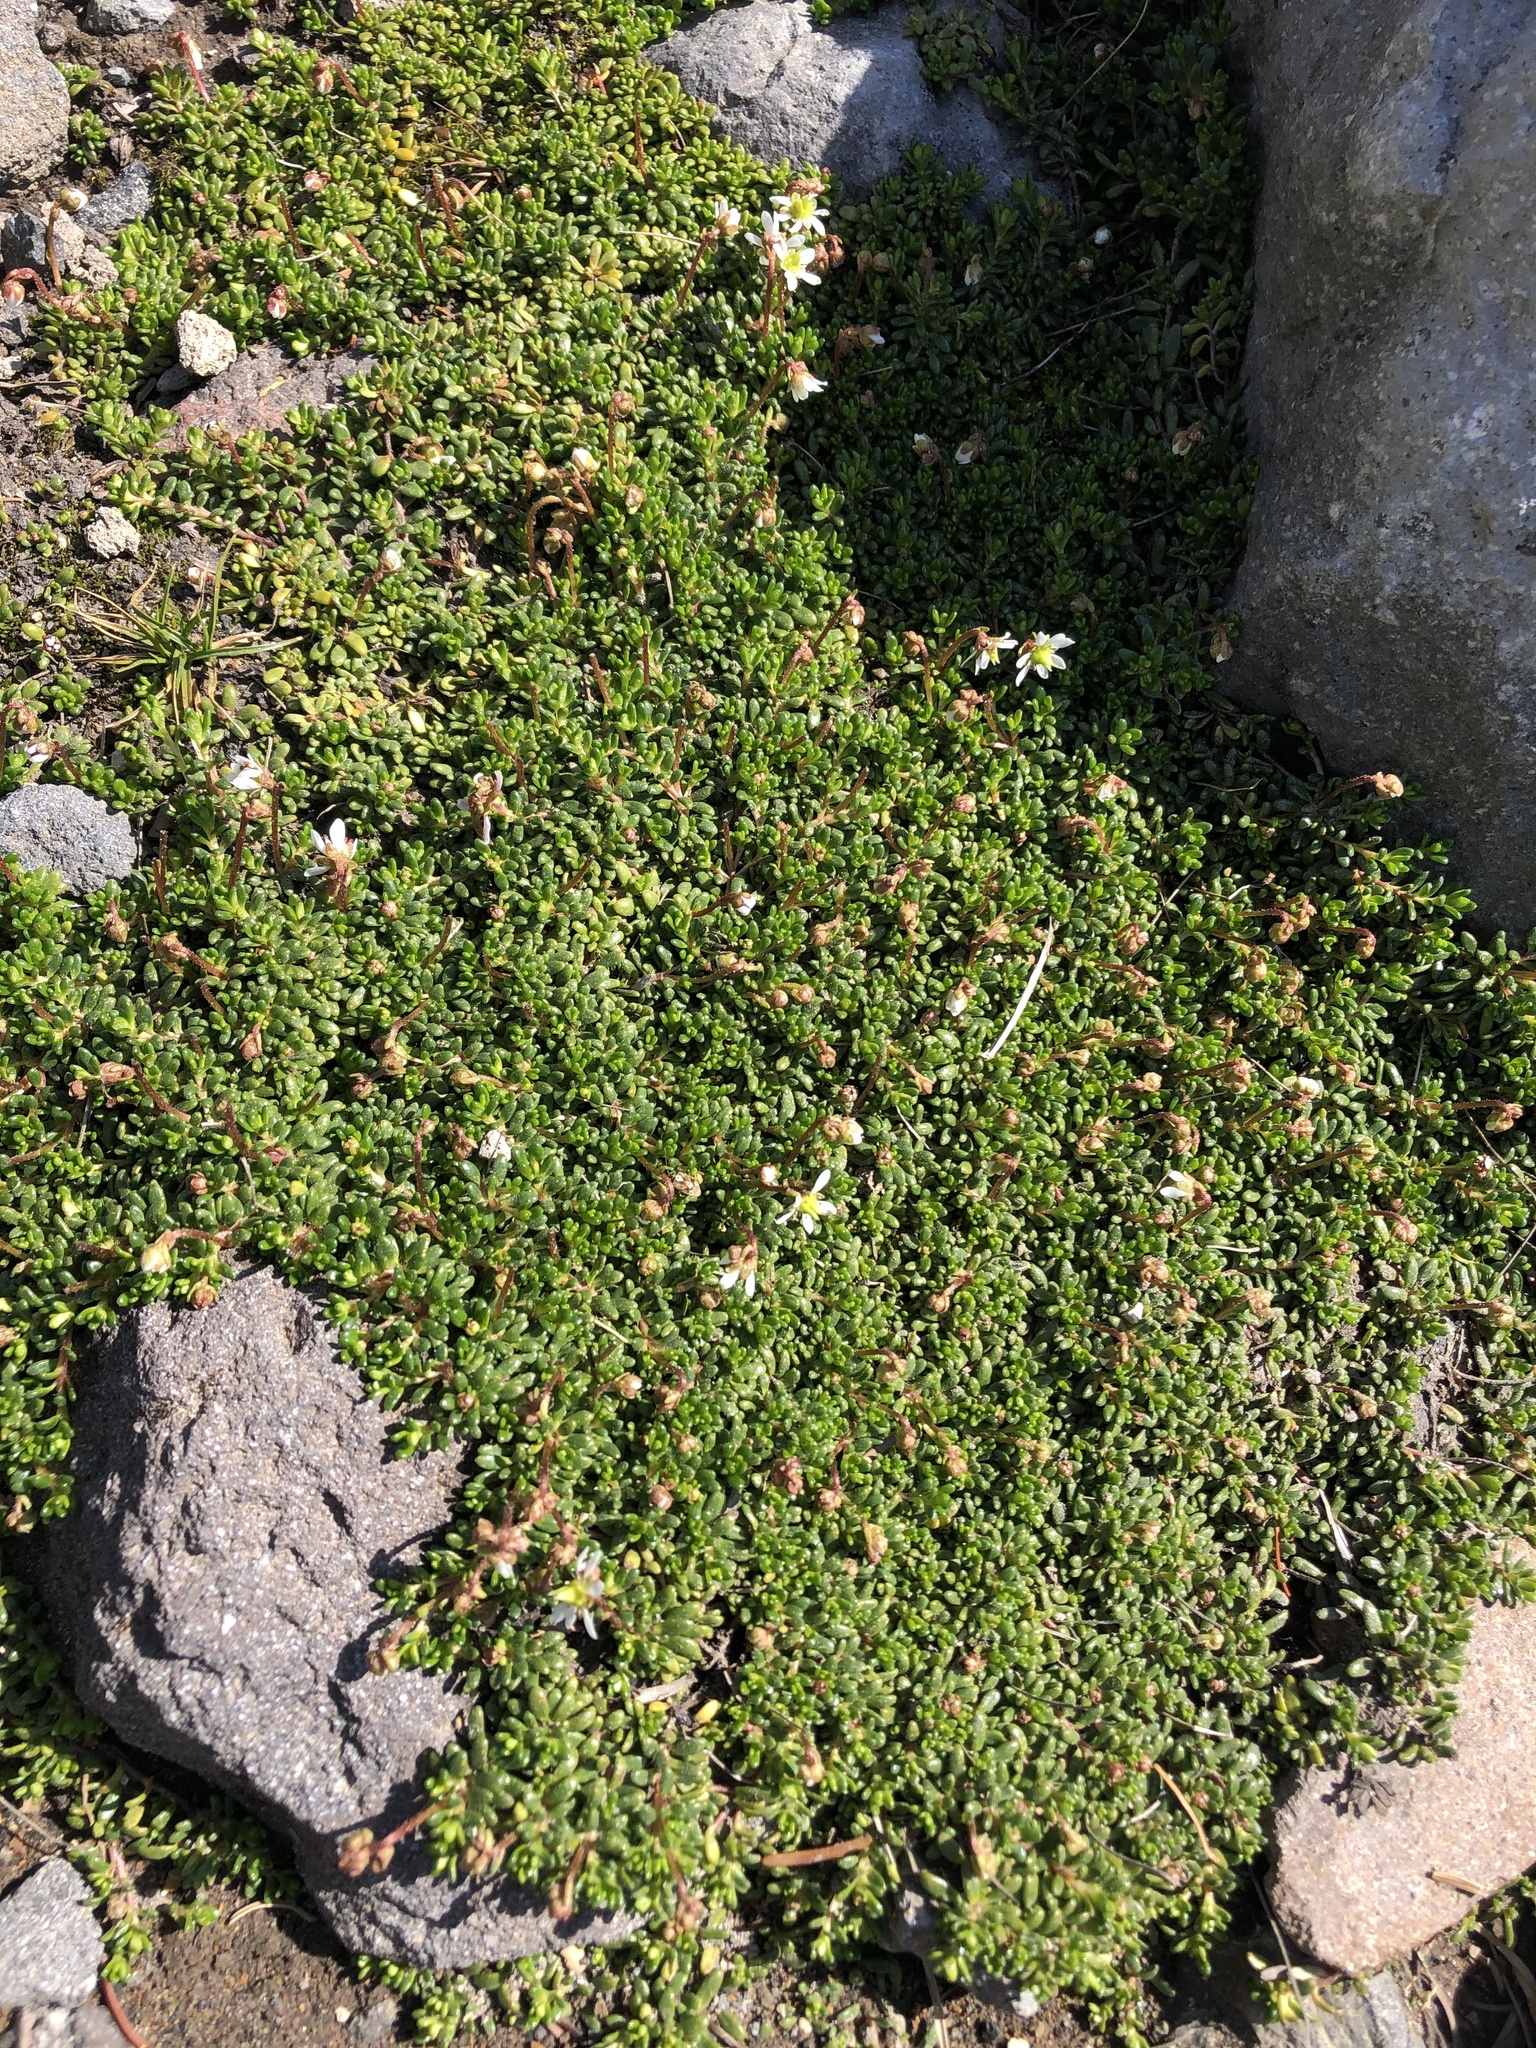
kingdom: Plantae
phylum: Tracheophyta
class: Magnoliopsida
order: Saxifragales
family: Saxifragaceae
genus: Micranthes
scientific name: Micranthes tolmiei
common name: Tolmie's saxifrage
